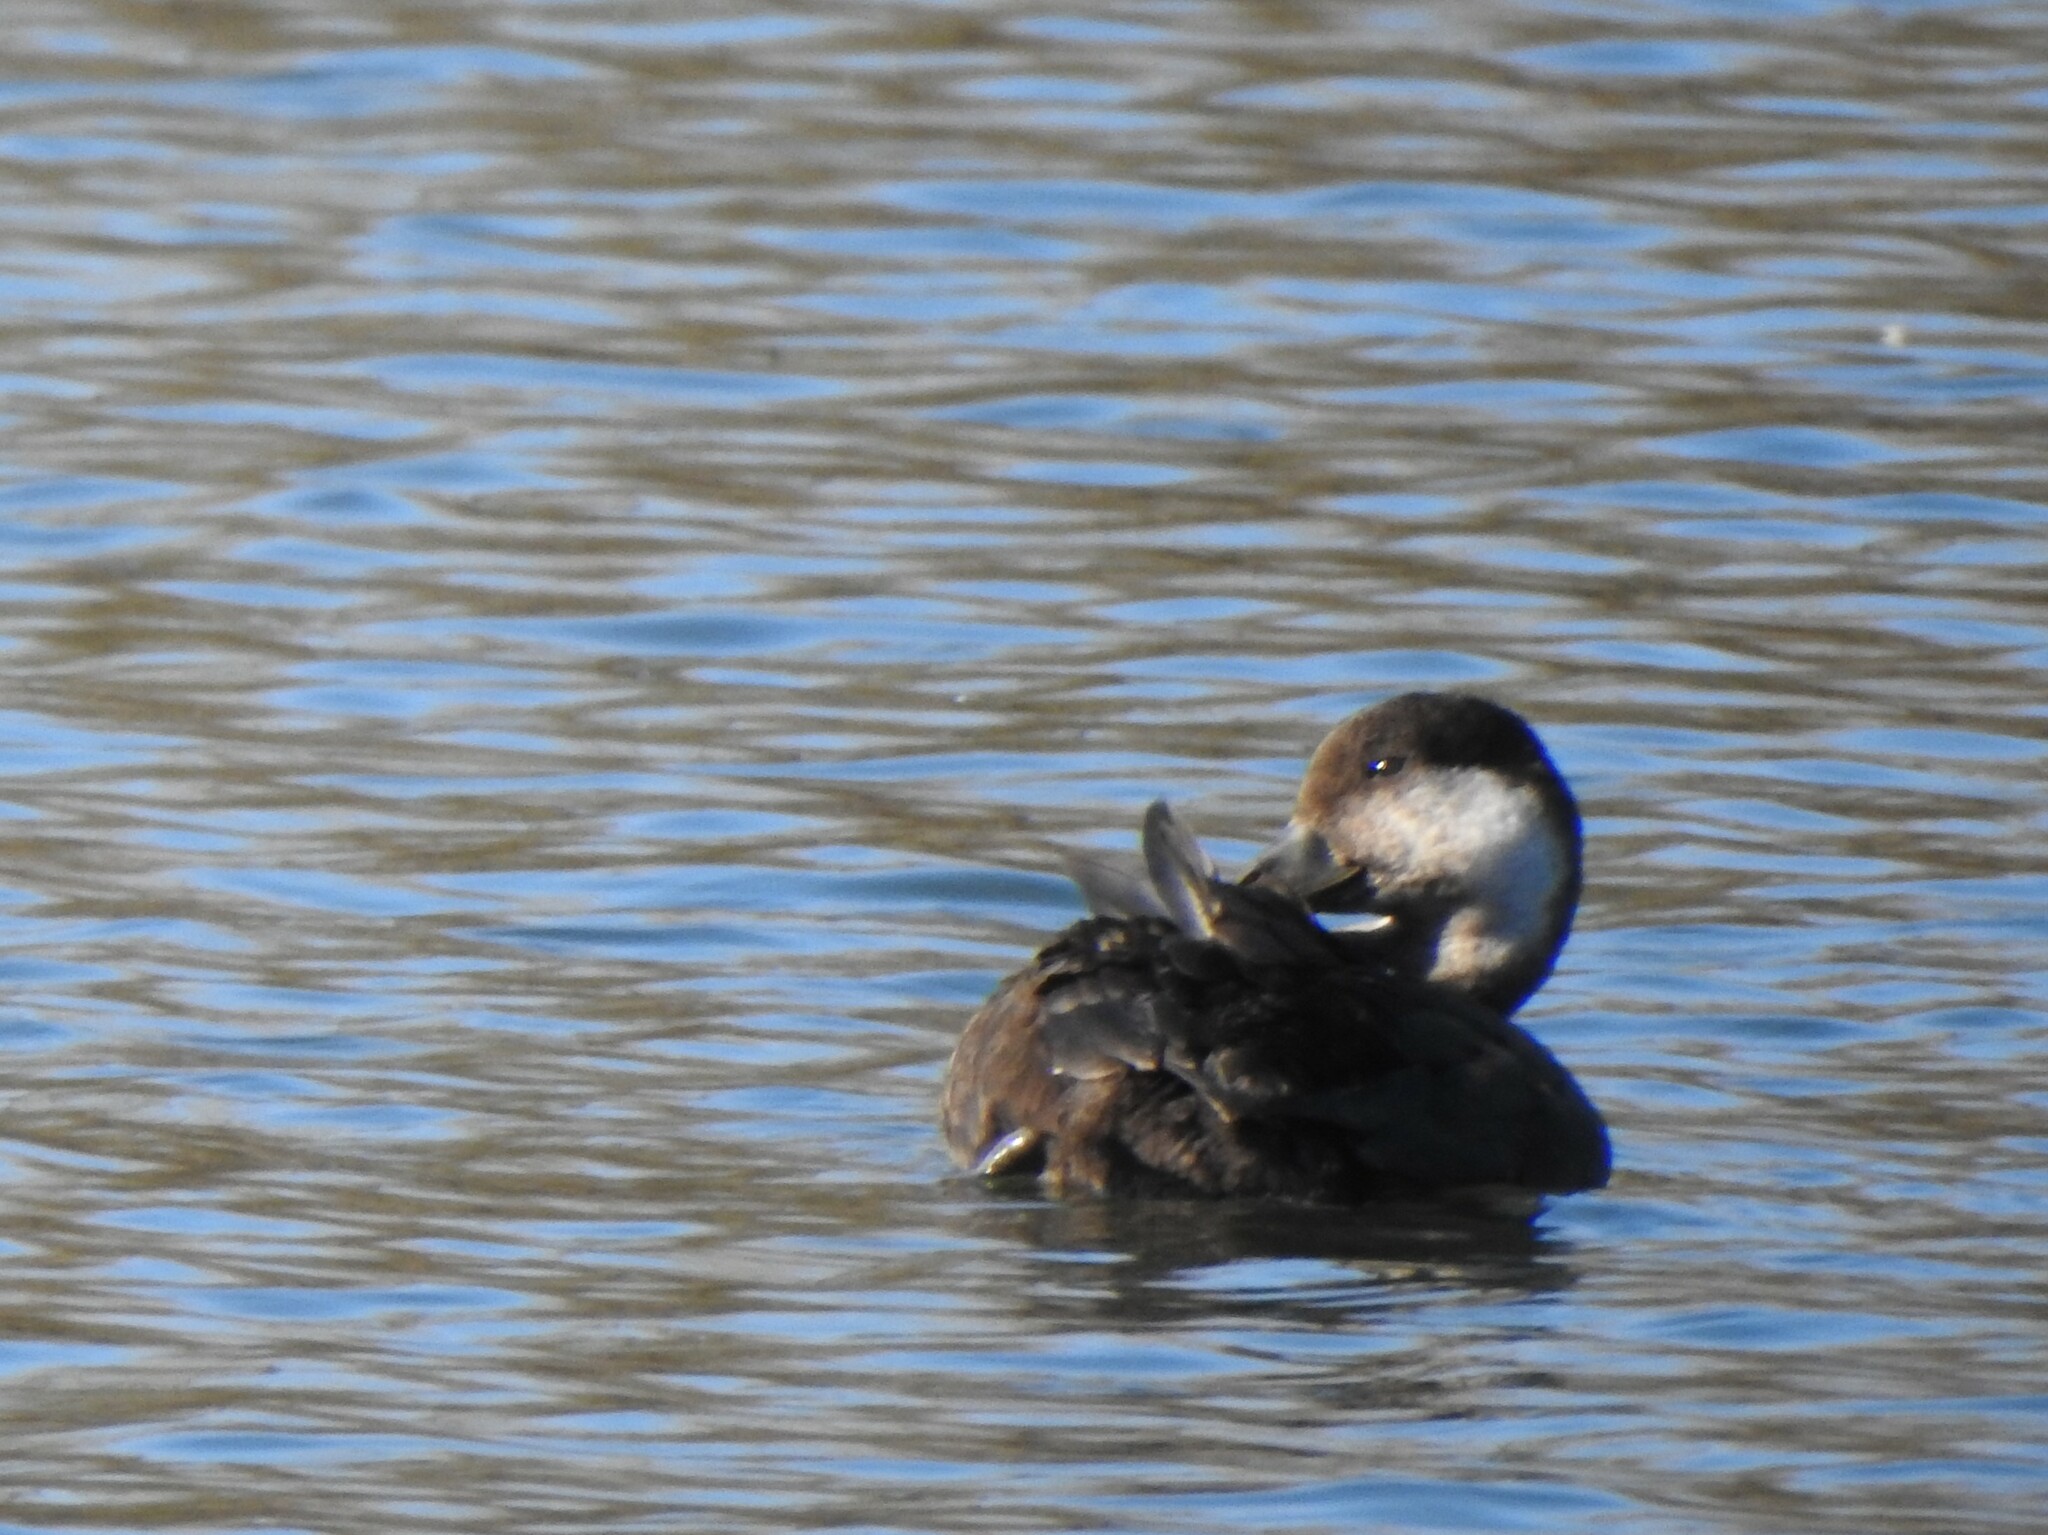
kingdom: Animalia
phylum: Chordata
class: Aves
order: Anseriformes
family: Anatidae
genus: Melanitta
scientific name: Melanitta americana
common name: Black scoter
